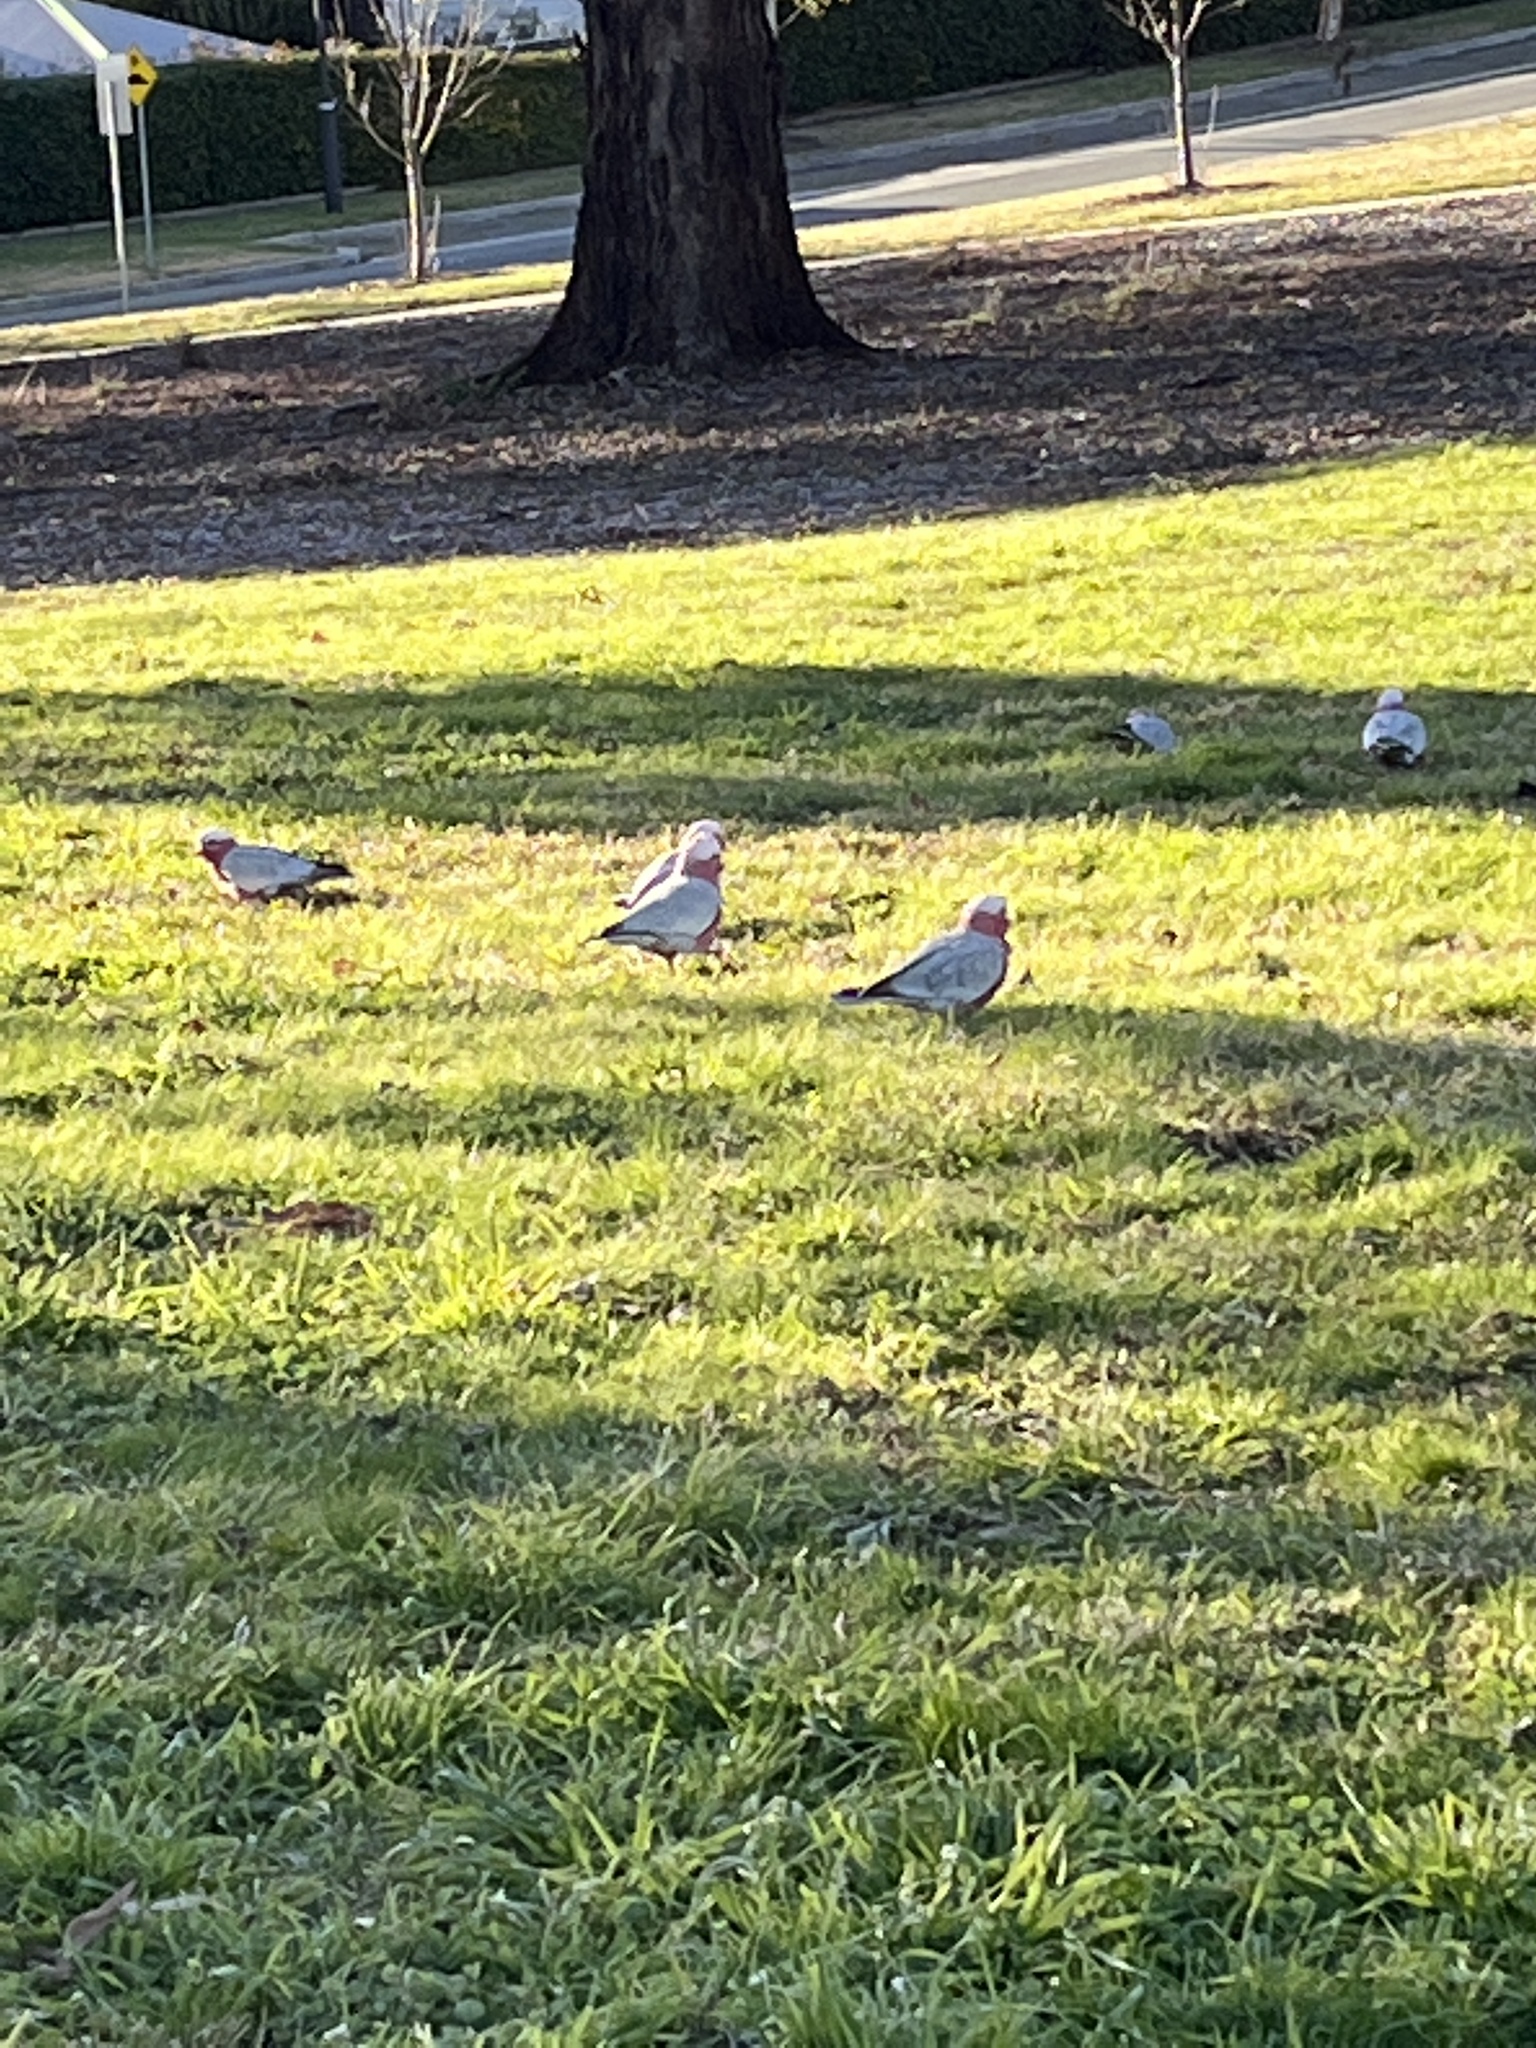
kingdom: Animalia
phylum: Chordata
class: Aves
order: Psittaciformes
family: Psittacidae
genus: Eolophus
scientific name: Eolophus roseicapilla
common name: Galah
